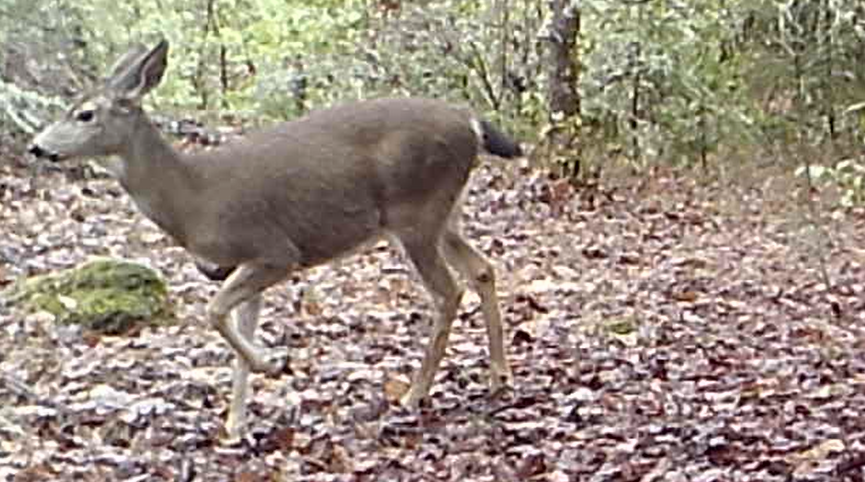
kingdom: Animalia
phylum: Chordata
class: Mammalia
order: Artiodactyla
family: Cervidae
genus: Odocoileus
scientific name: Odocoileus hemionus
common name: Mule deer
